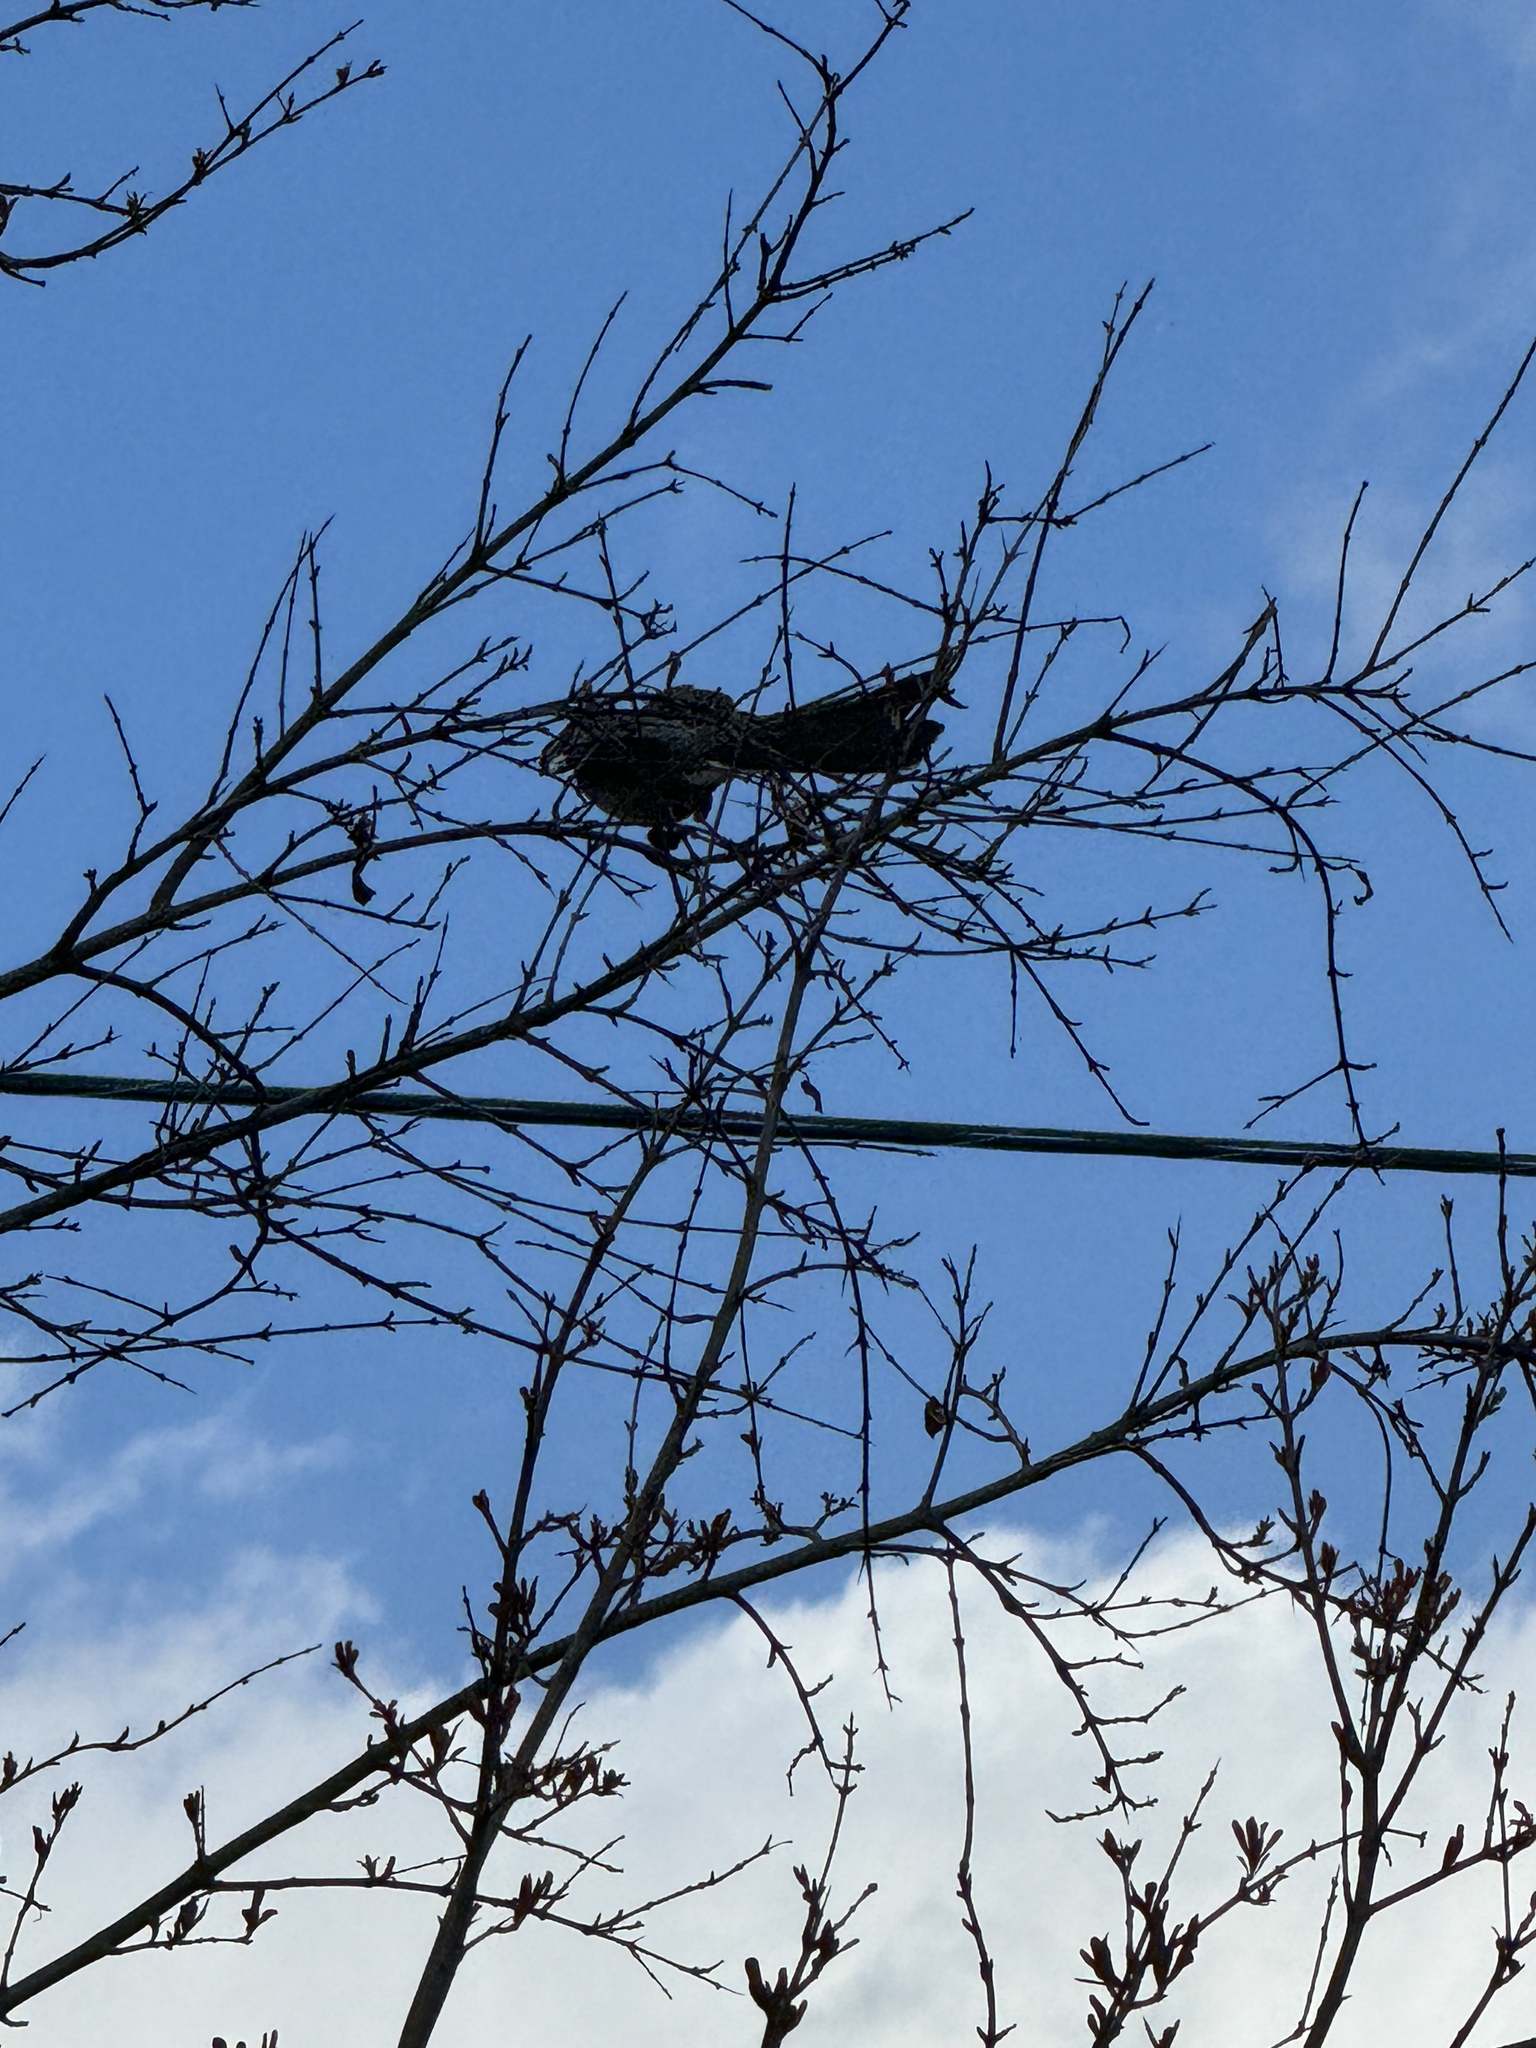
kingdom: Animalia
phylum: Chordata
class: Aves
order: Passeriformes
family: Mimidae
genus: Mimus
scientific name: Mimus polyglottos
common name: Northern mockingbird
